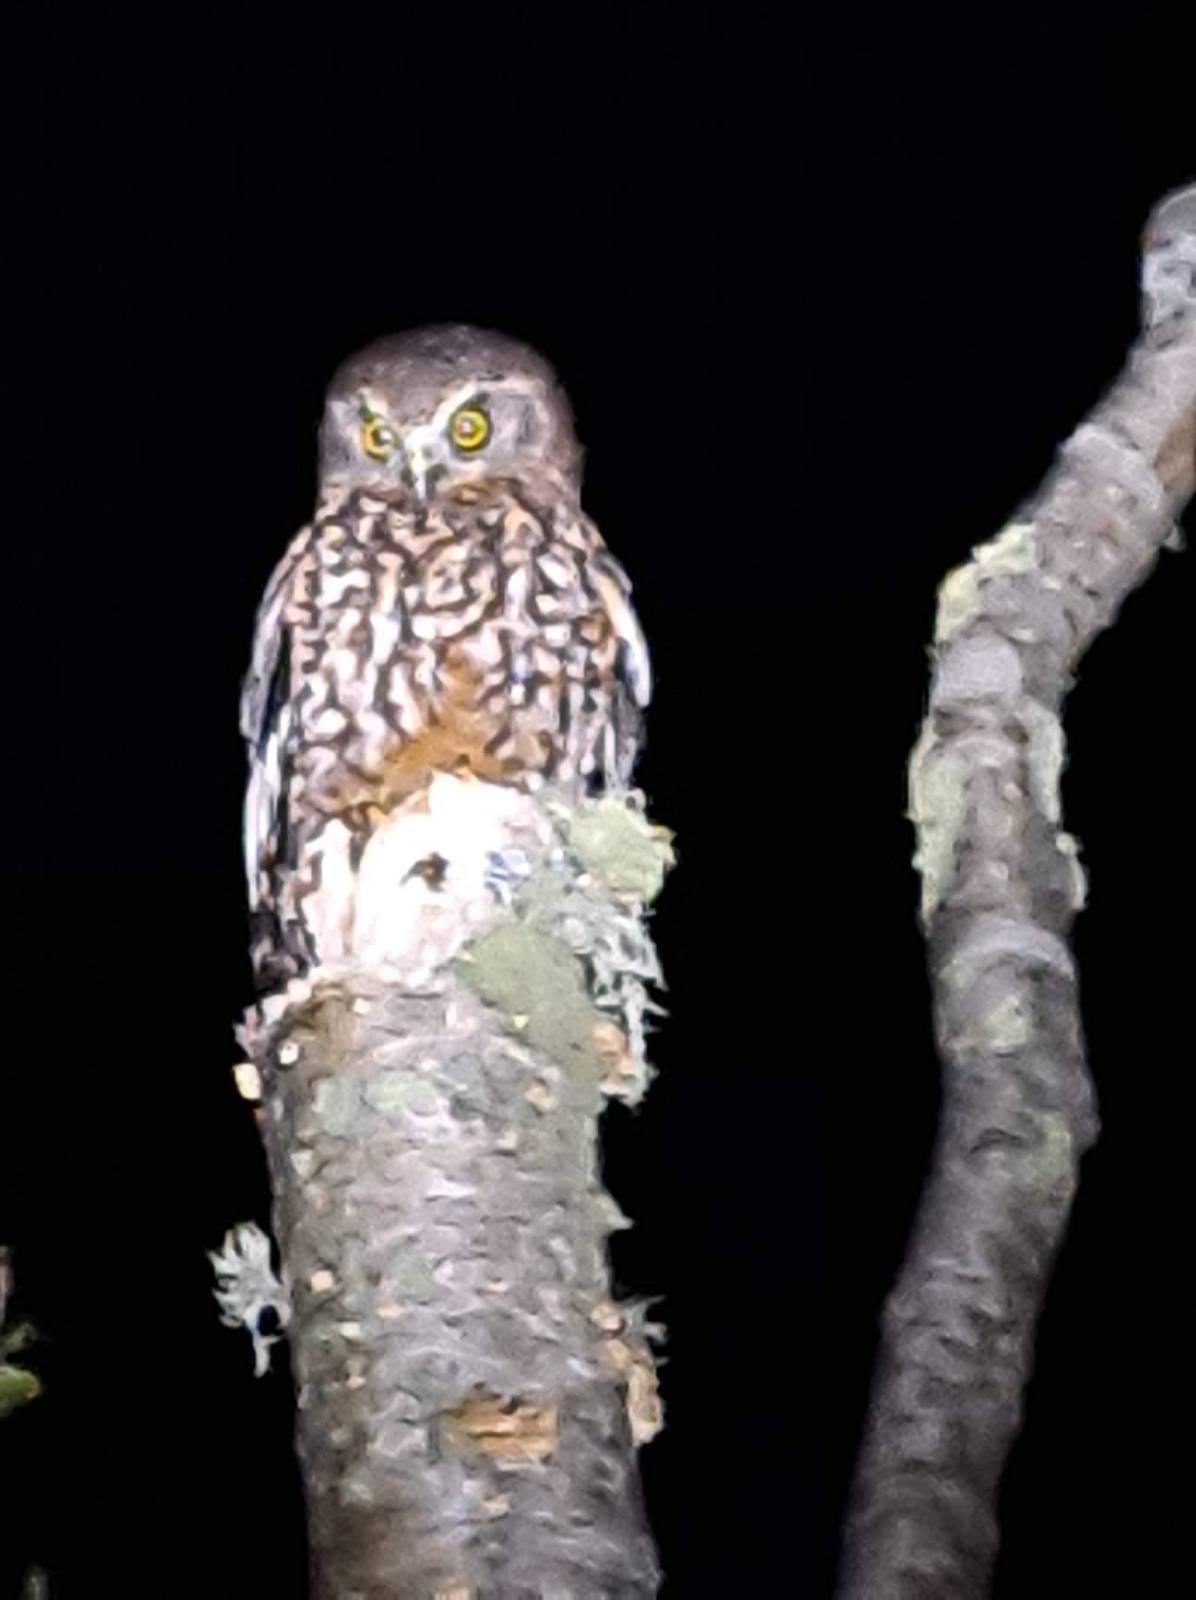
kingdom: Animalia
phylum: Chordata
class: Aves
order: Strigiformes
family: Strigidae
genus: Ninox
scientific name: Ninox novaeseelandiae
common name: Morepork
